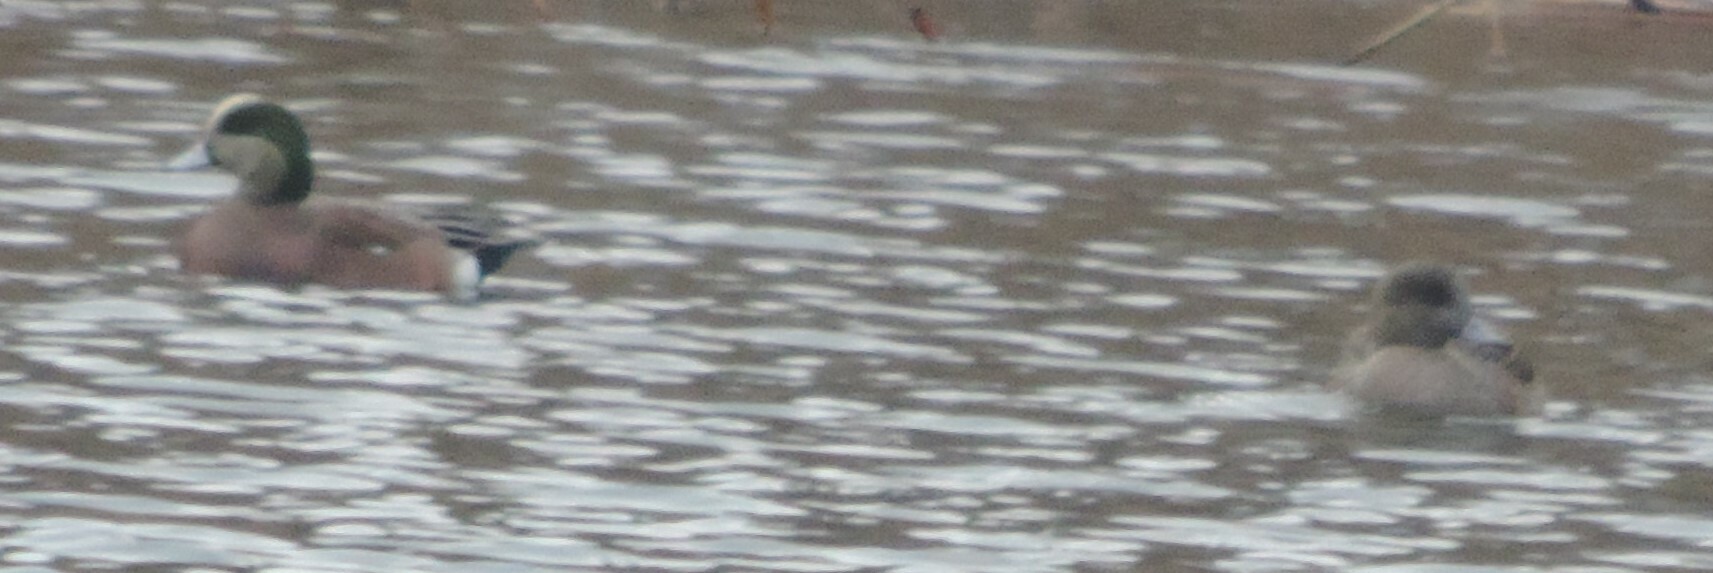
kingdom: Animalia
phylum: Chordata
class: Aves
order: Anseriformes
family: Anatidae
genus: Mareca
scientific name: Mareca americana
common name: American wigeon
